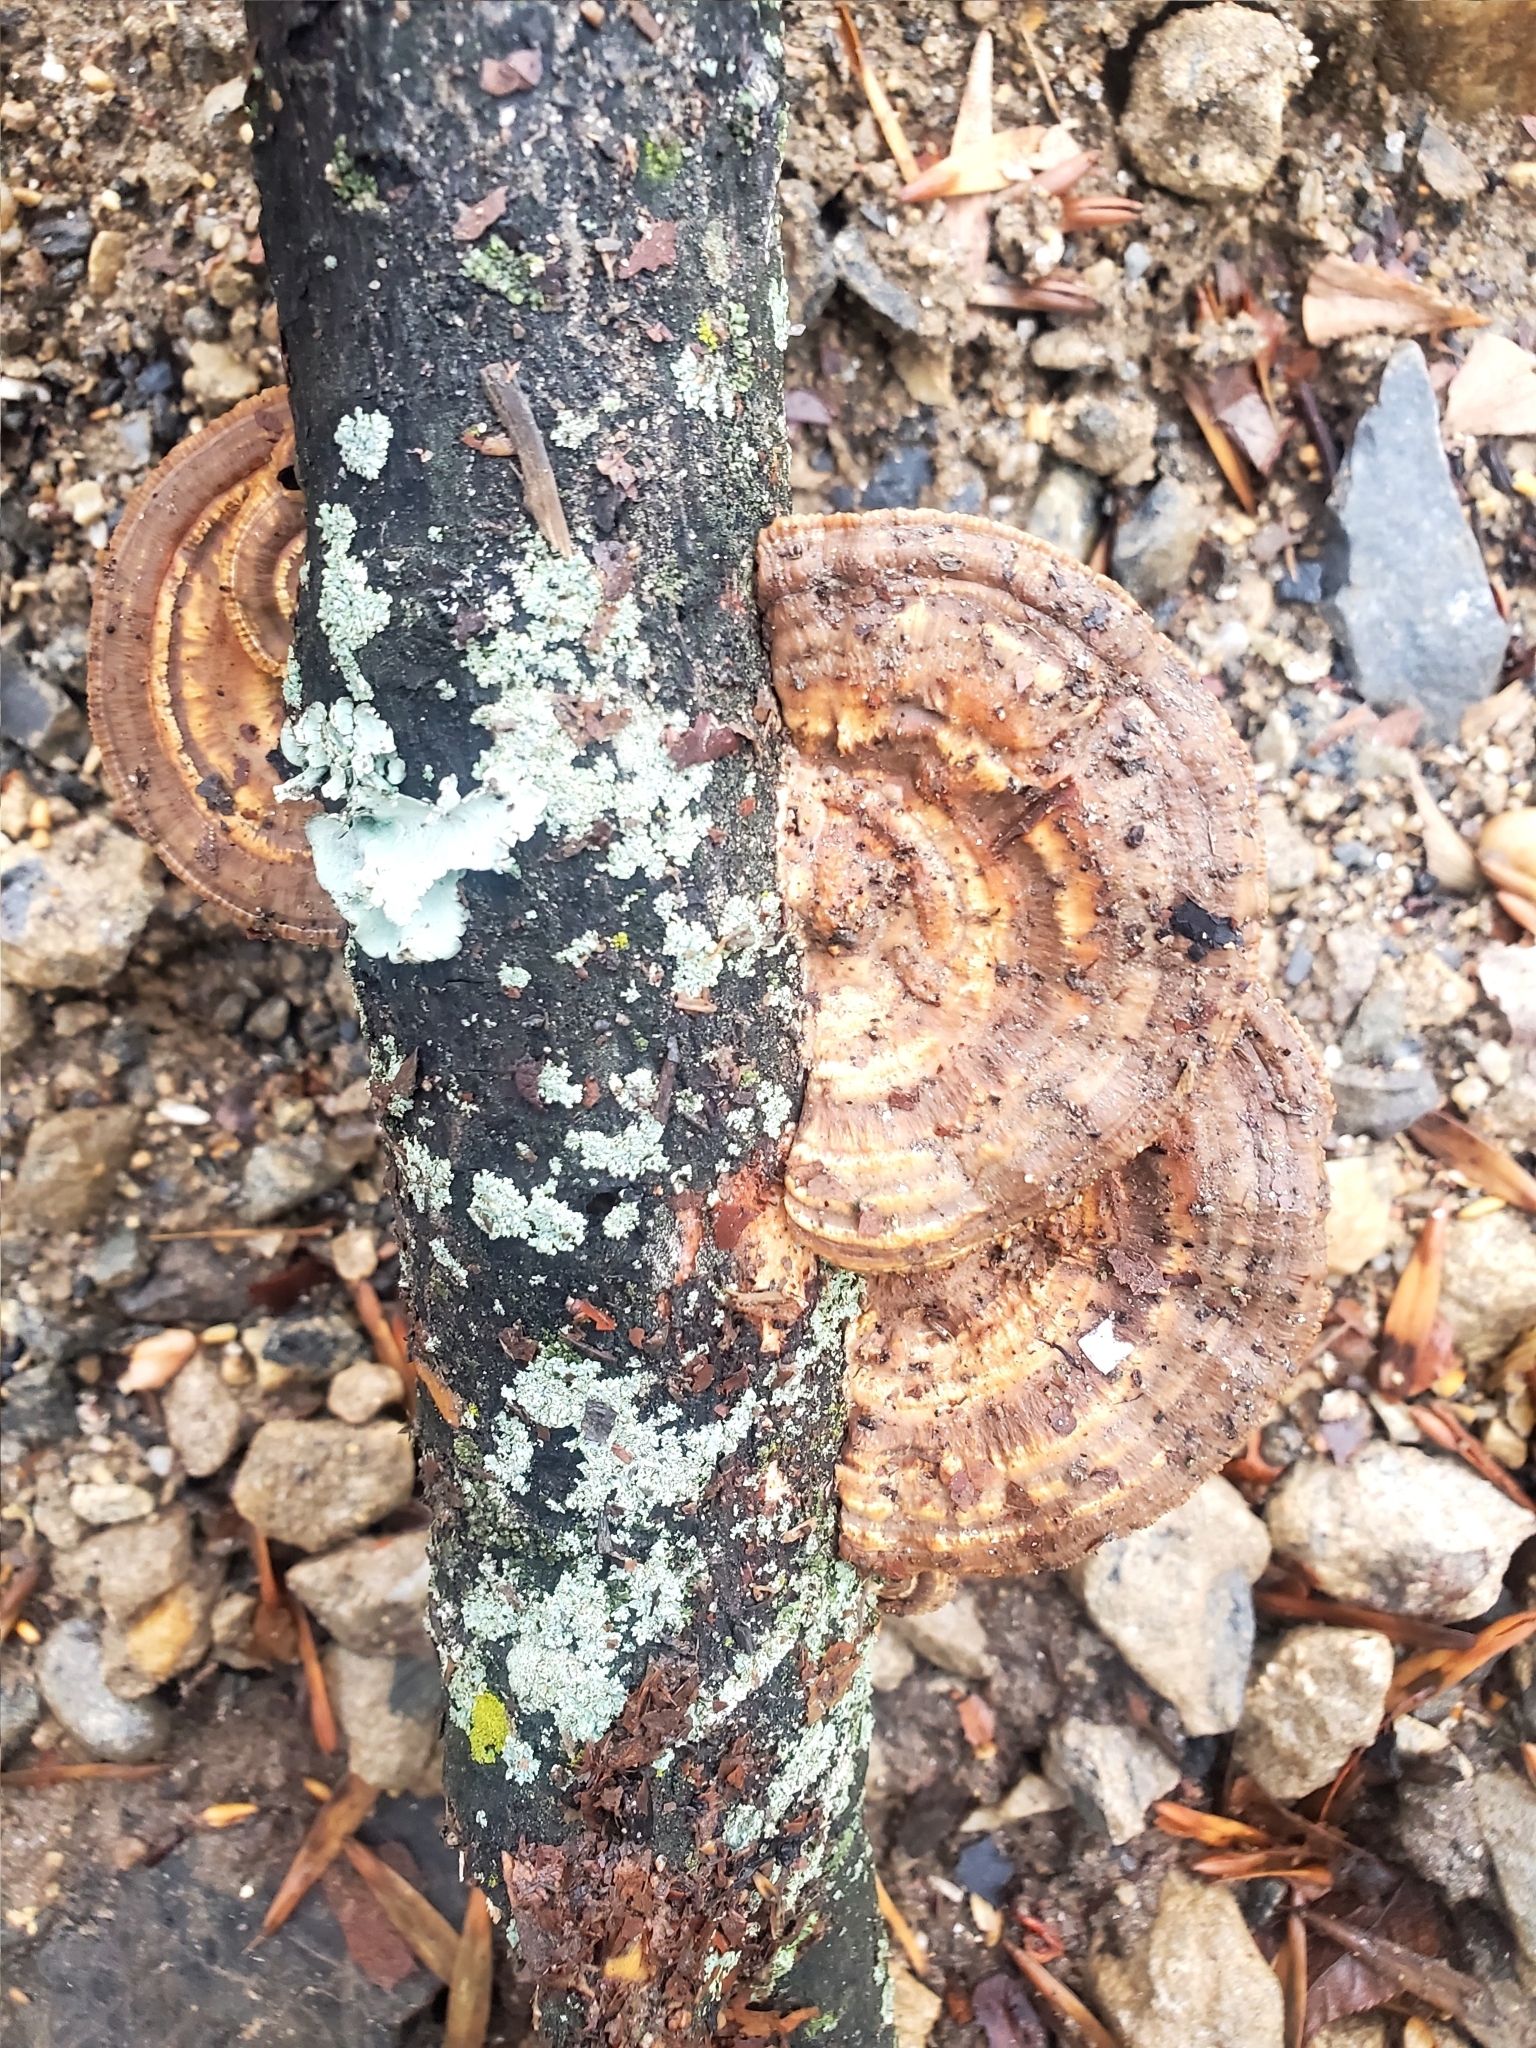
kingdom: Fungi
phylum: Basidiomycota
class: Agaricomycetes
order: Polyporales
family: Polyporaceae
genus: Daedaleopsis
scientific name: Daedaleopsis confragosa
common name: Blushing bracket
